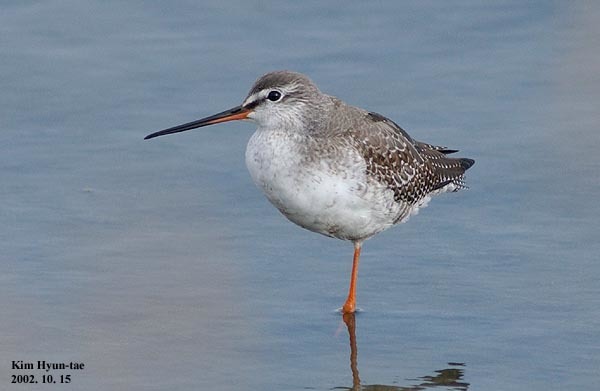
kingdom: Animalia
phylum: Chordata
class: Aves
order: Charadriiformes
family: Scolopacidae
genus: Tringa
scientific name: Tringa erythropus
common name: Spotted redshank
